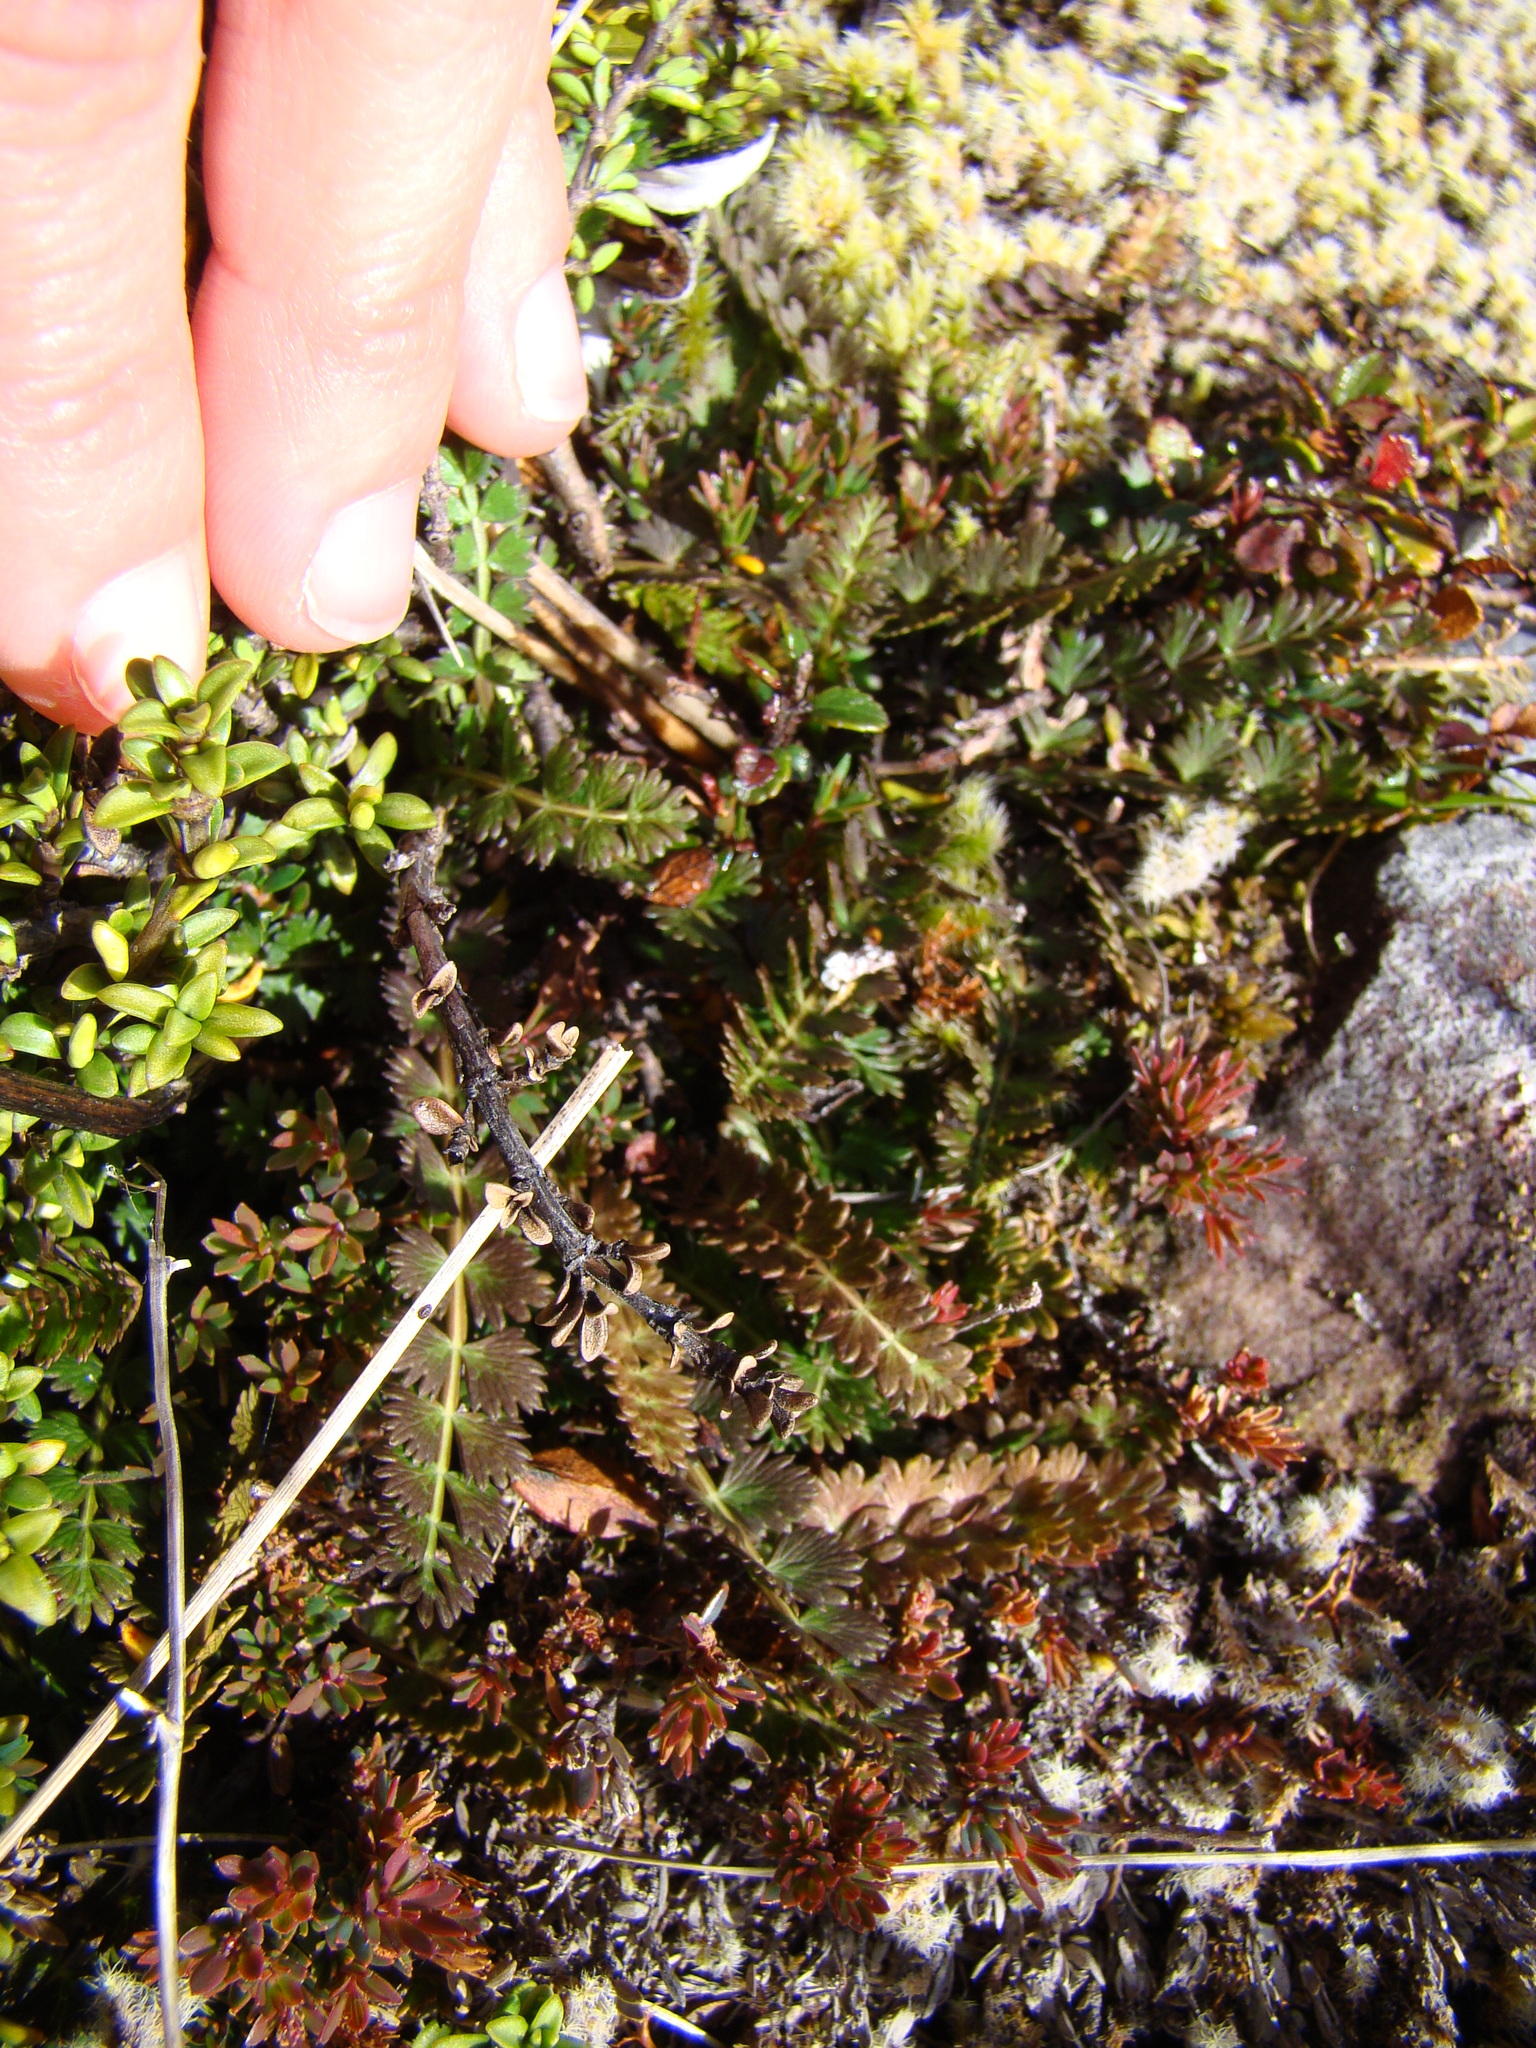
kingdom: Plantae
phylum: Tracheophyta
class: Magnoliopsida
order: Apiales
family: Apiaceae
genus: Anisotome
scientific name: Anisotome aromatica
